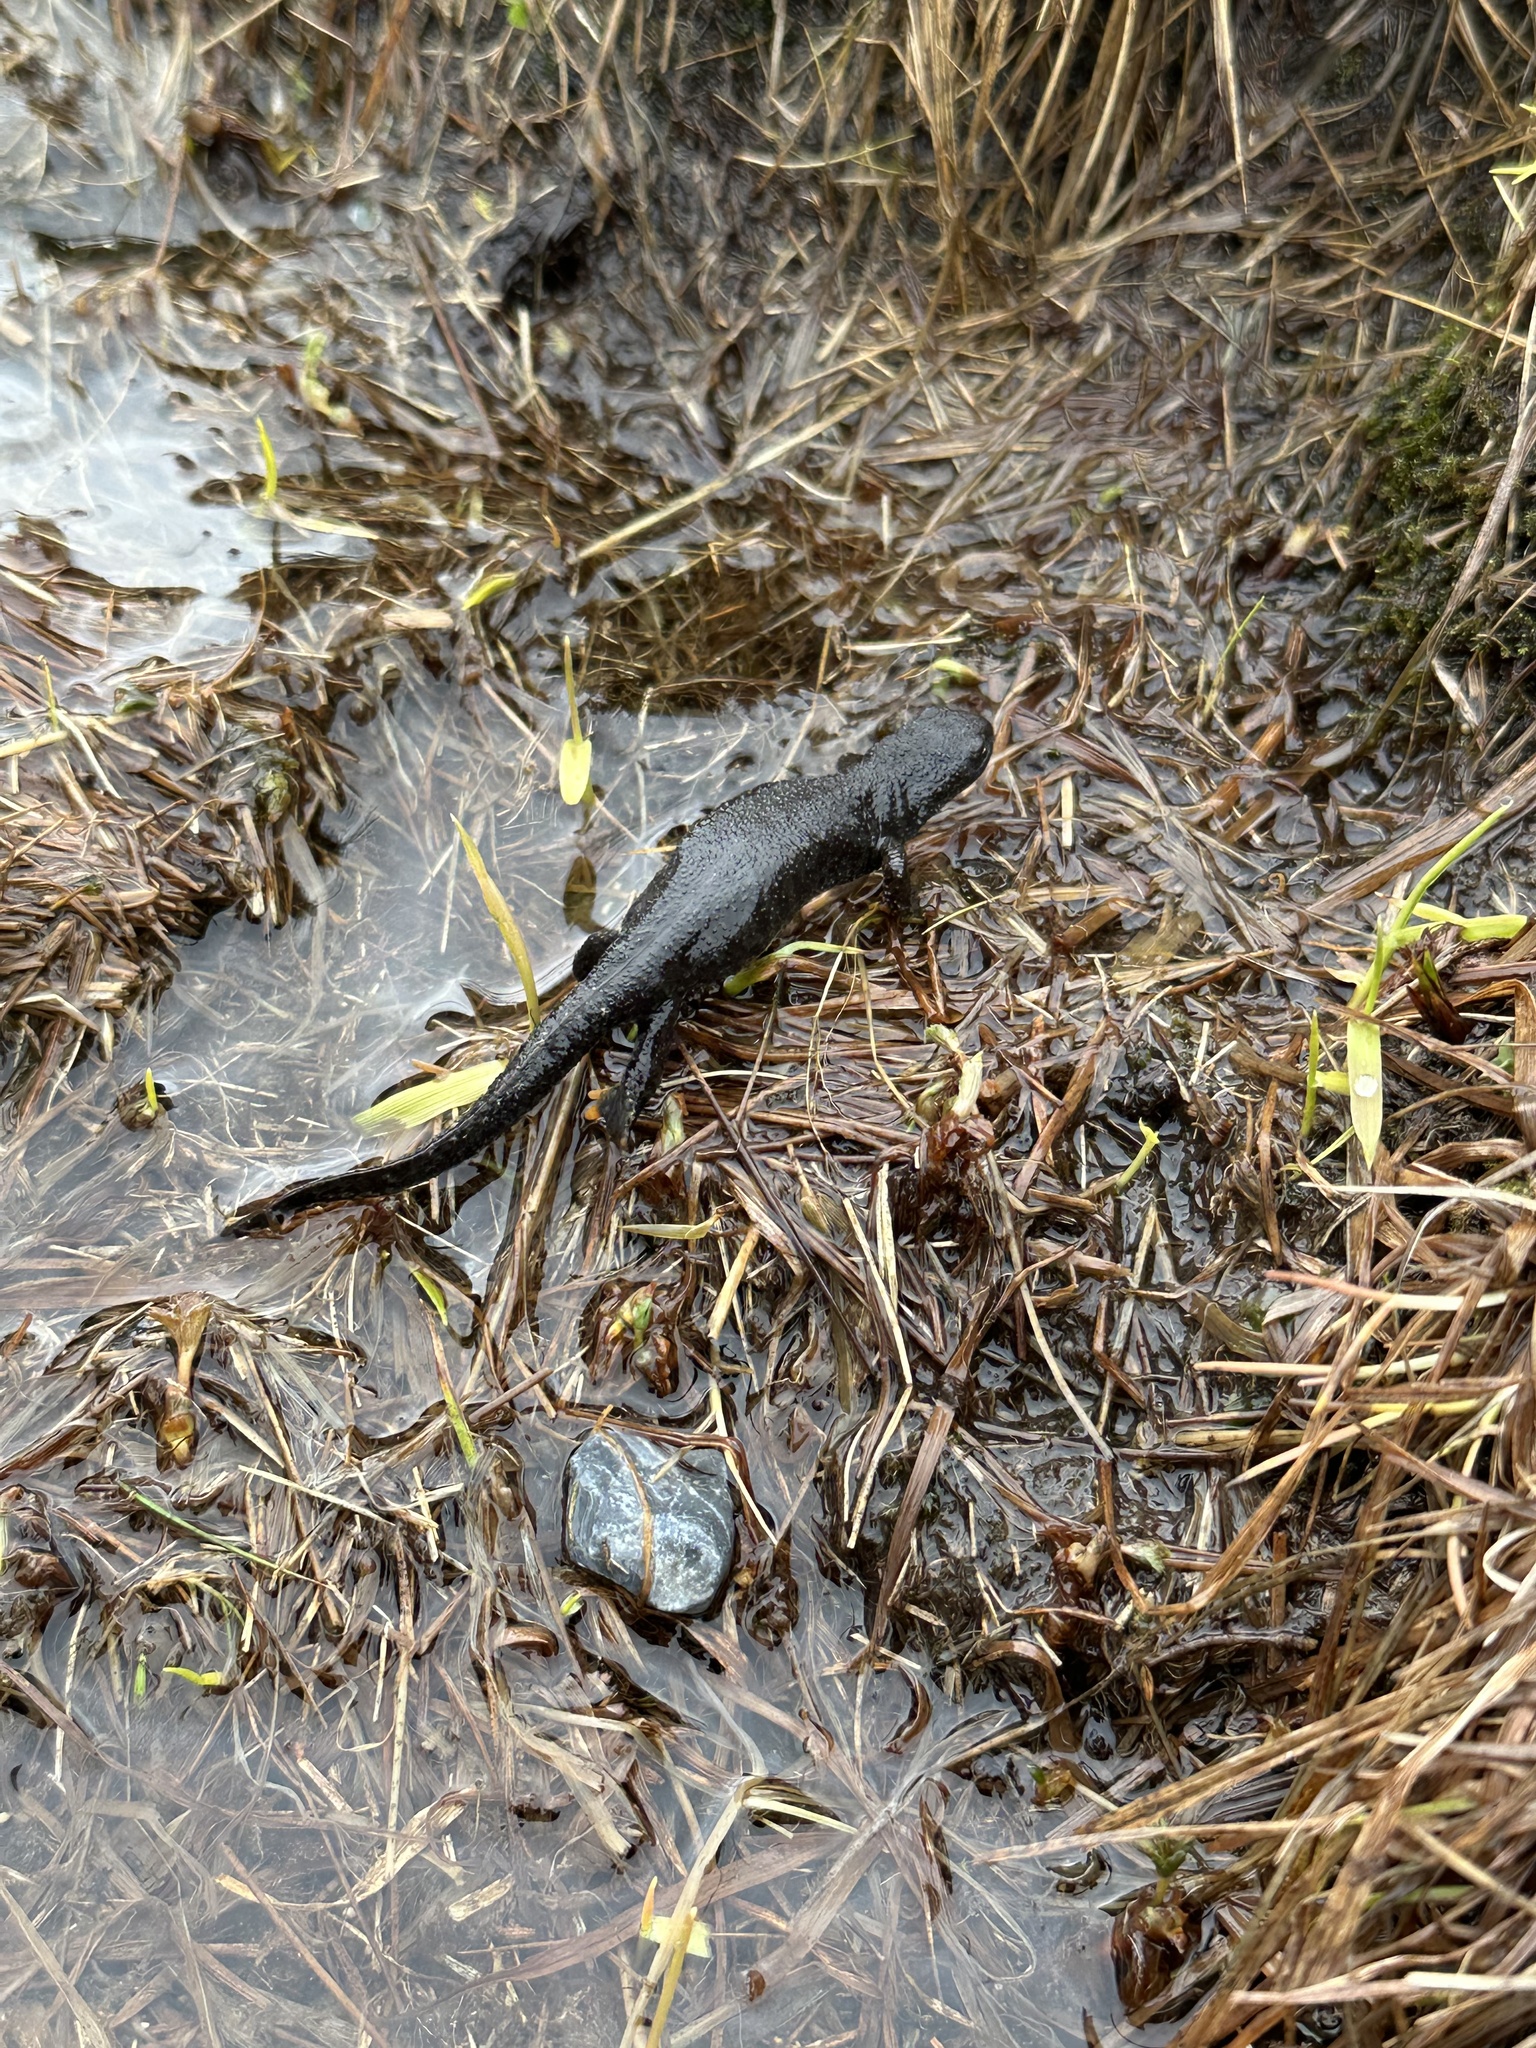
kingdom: Animalia
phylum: Chordata
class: Amphibia
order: Caudata
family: Salamandridae
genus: Triturus
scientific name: Triturus cristatus
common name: Crested newt
